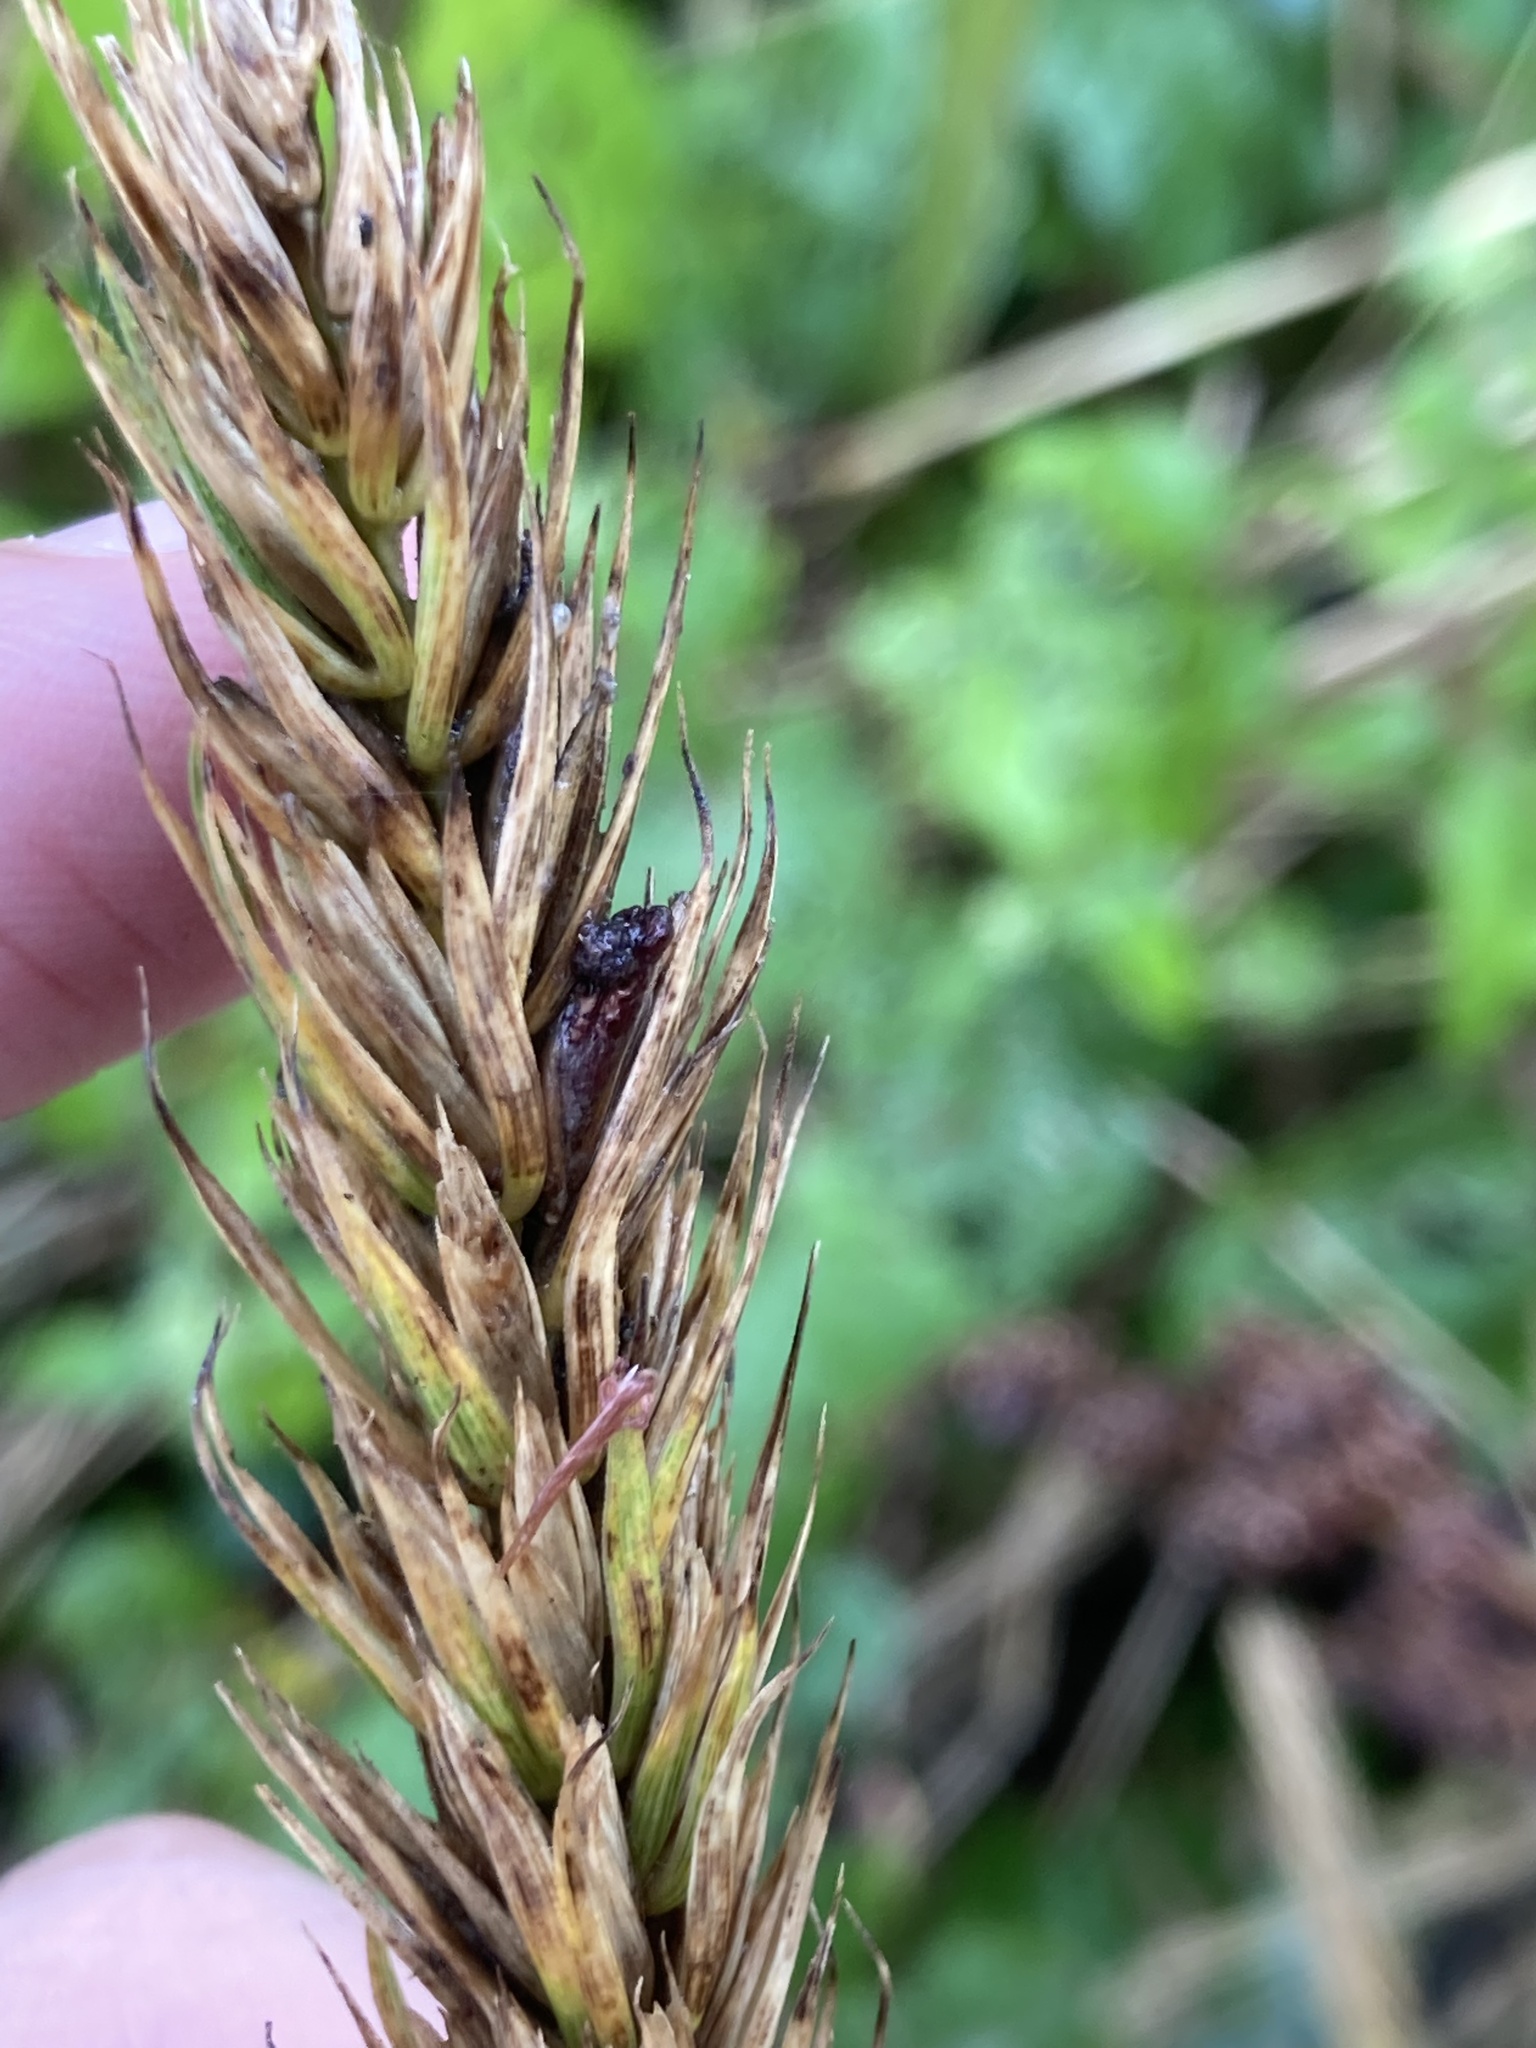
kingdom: Fungi
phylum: Ascomycota
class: Sordariomycetes
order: Hypocreales
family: Clavicipitaceae
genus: Claviceps
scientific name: Claviceps purpurea
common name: Rye ergot
